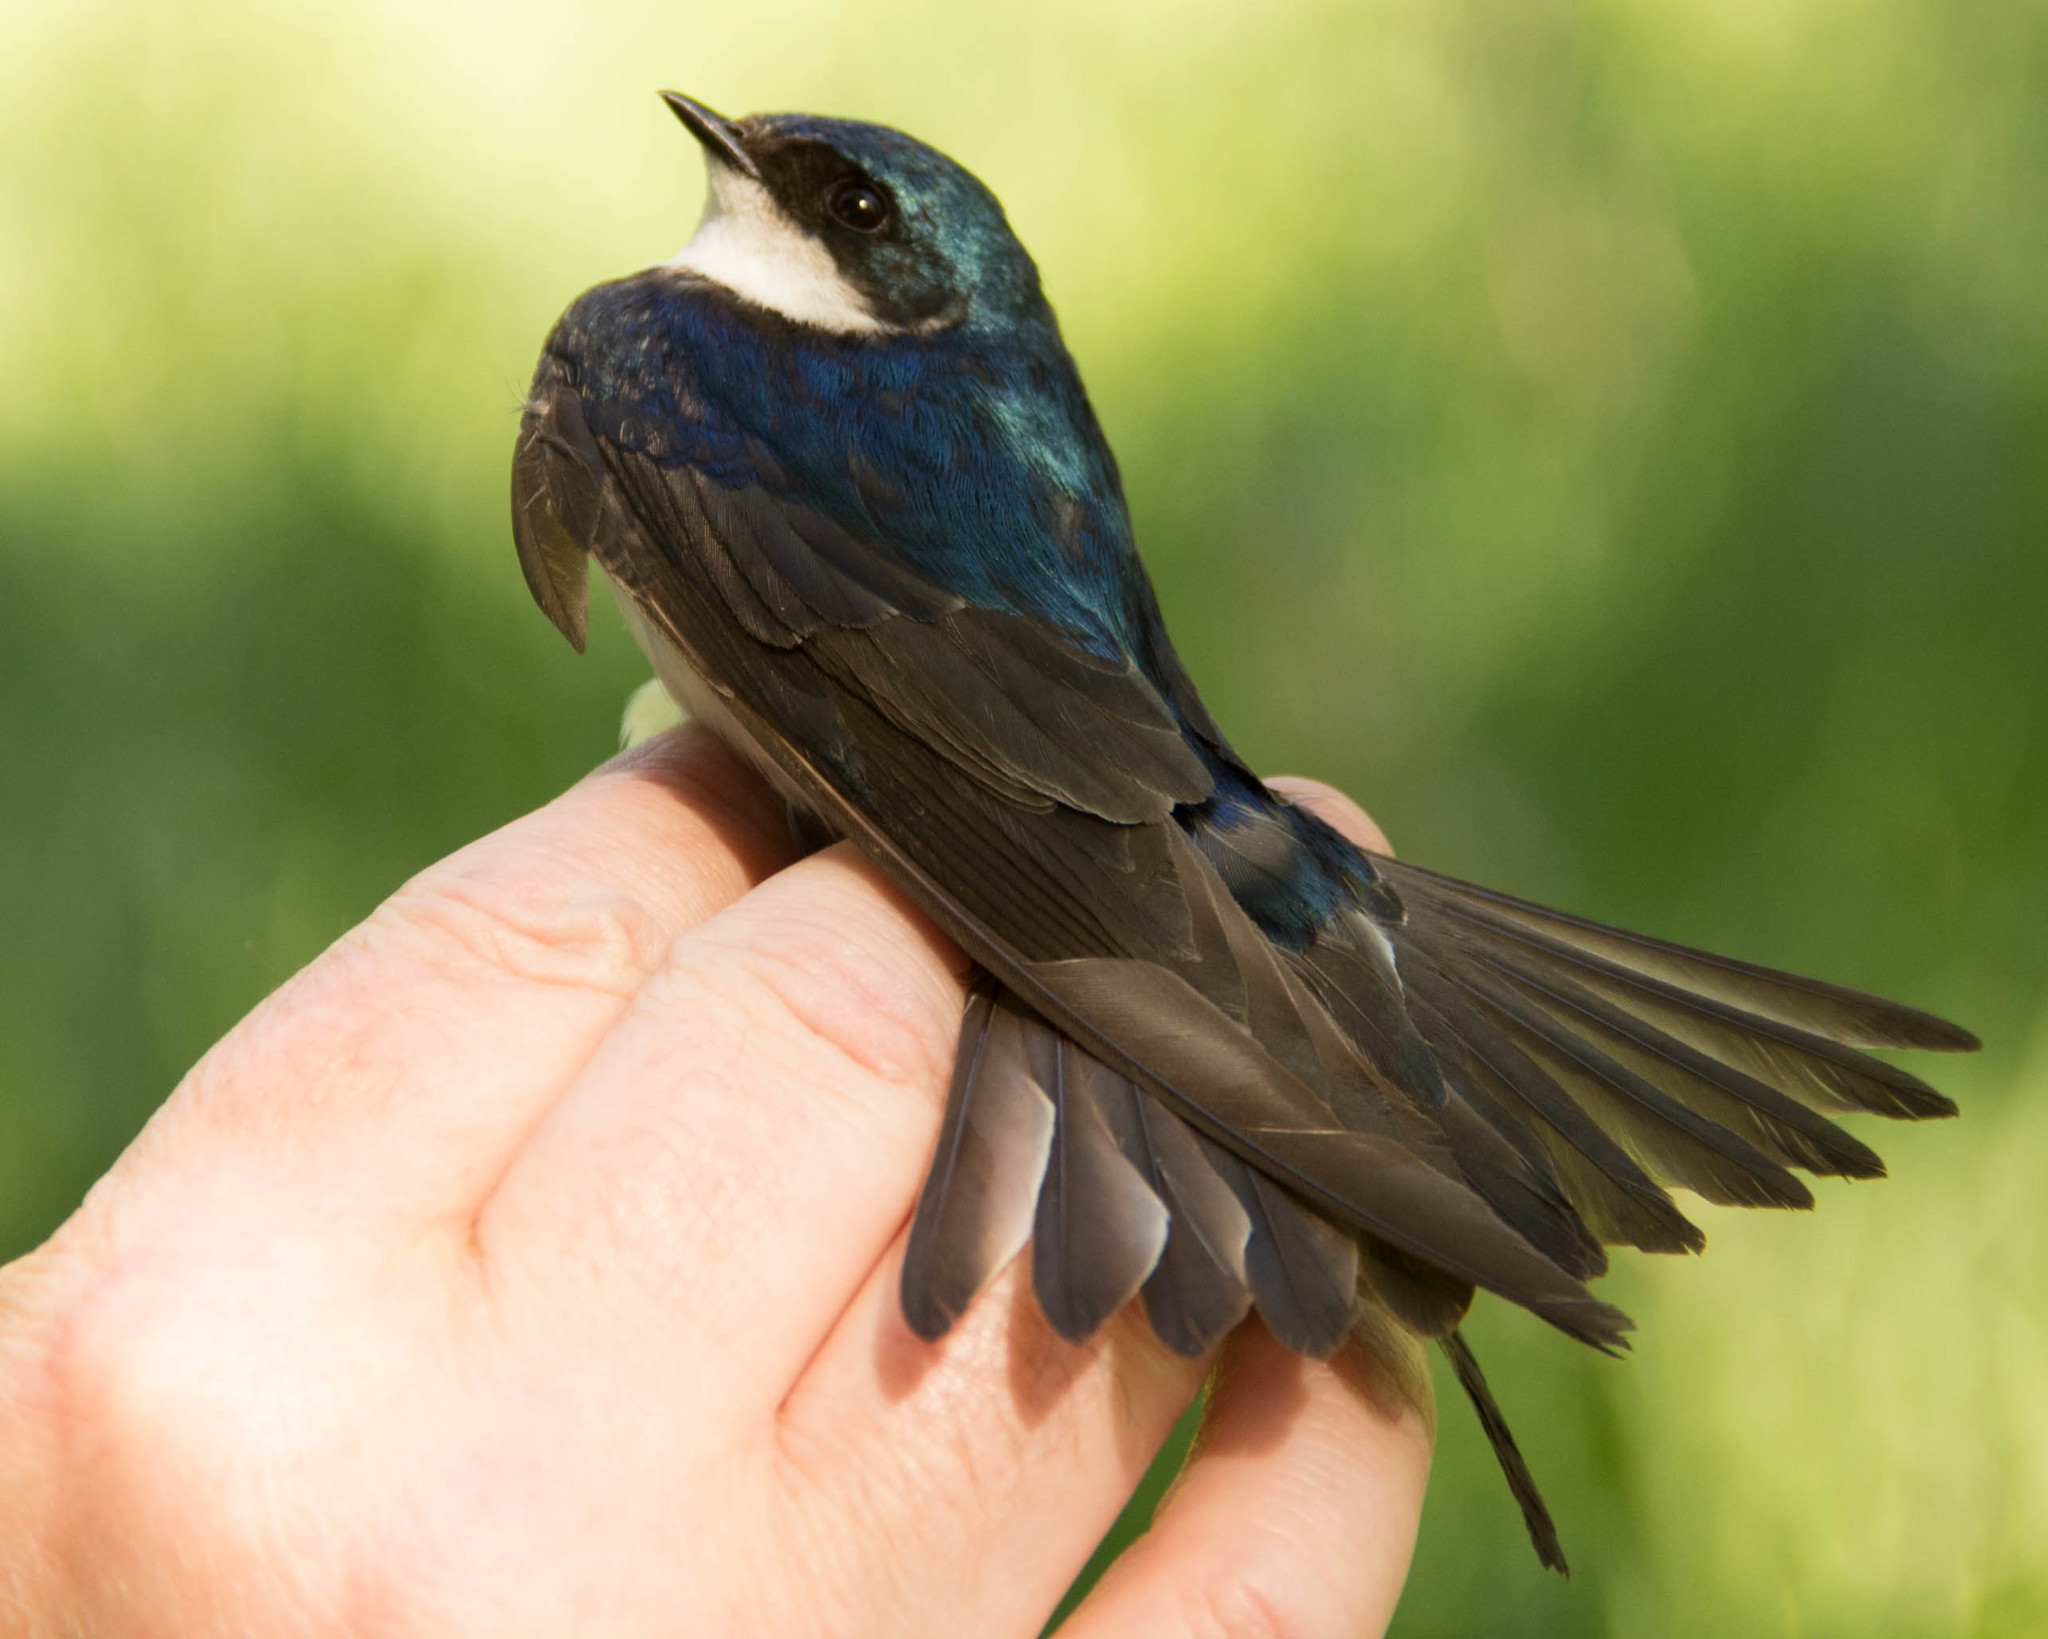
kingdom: Animalia
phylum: Chordata
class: Aves
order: Passeriformes
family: Hirundinidae
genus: Tachycineta
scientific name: Tachycineta bicolor
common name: Tree swallow
